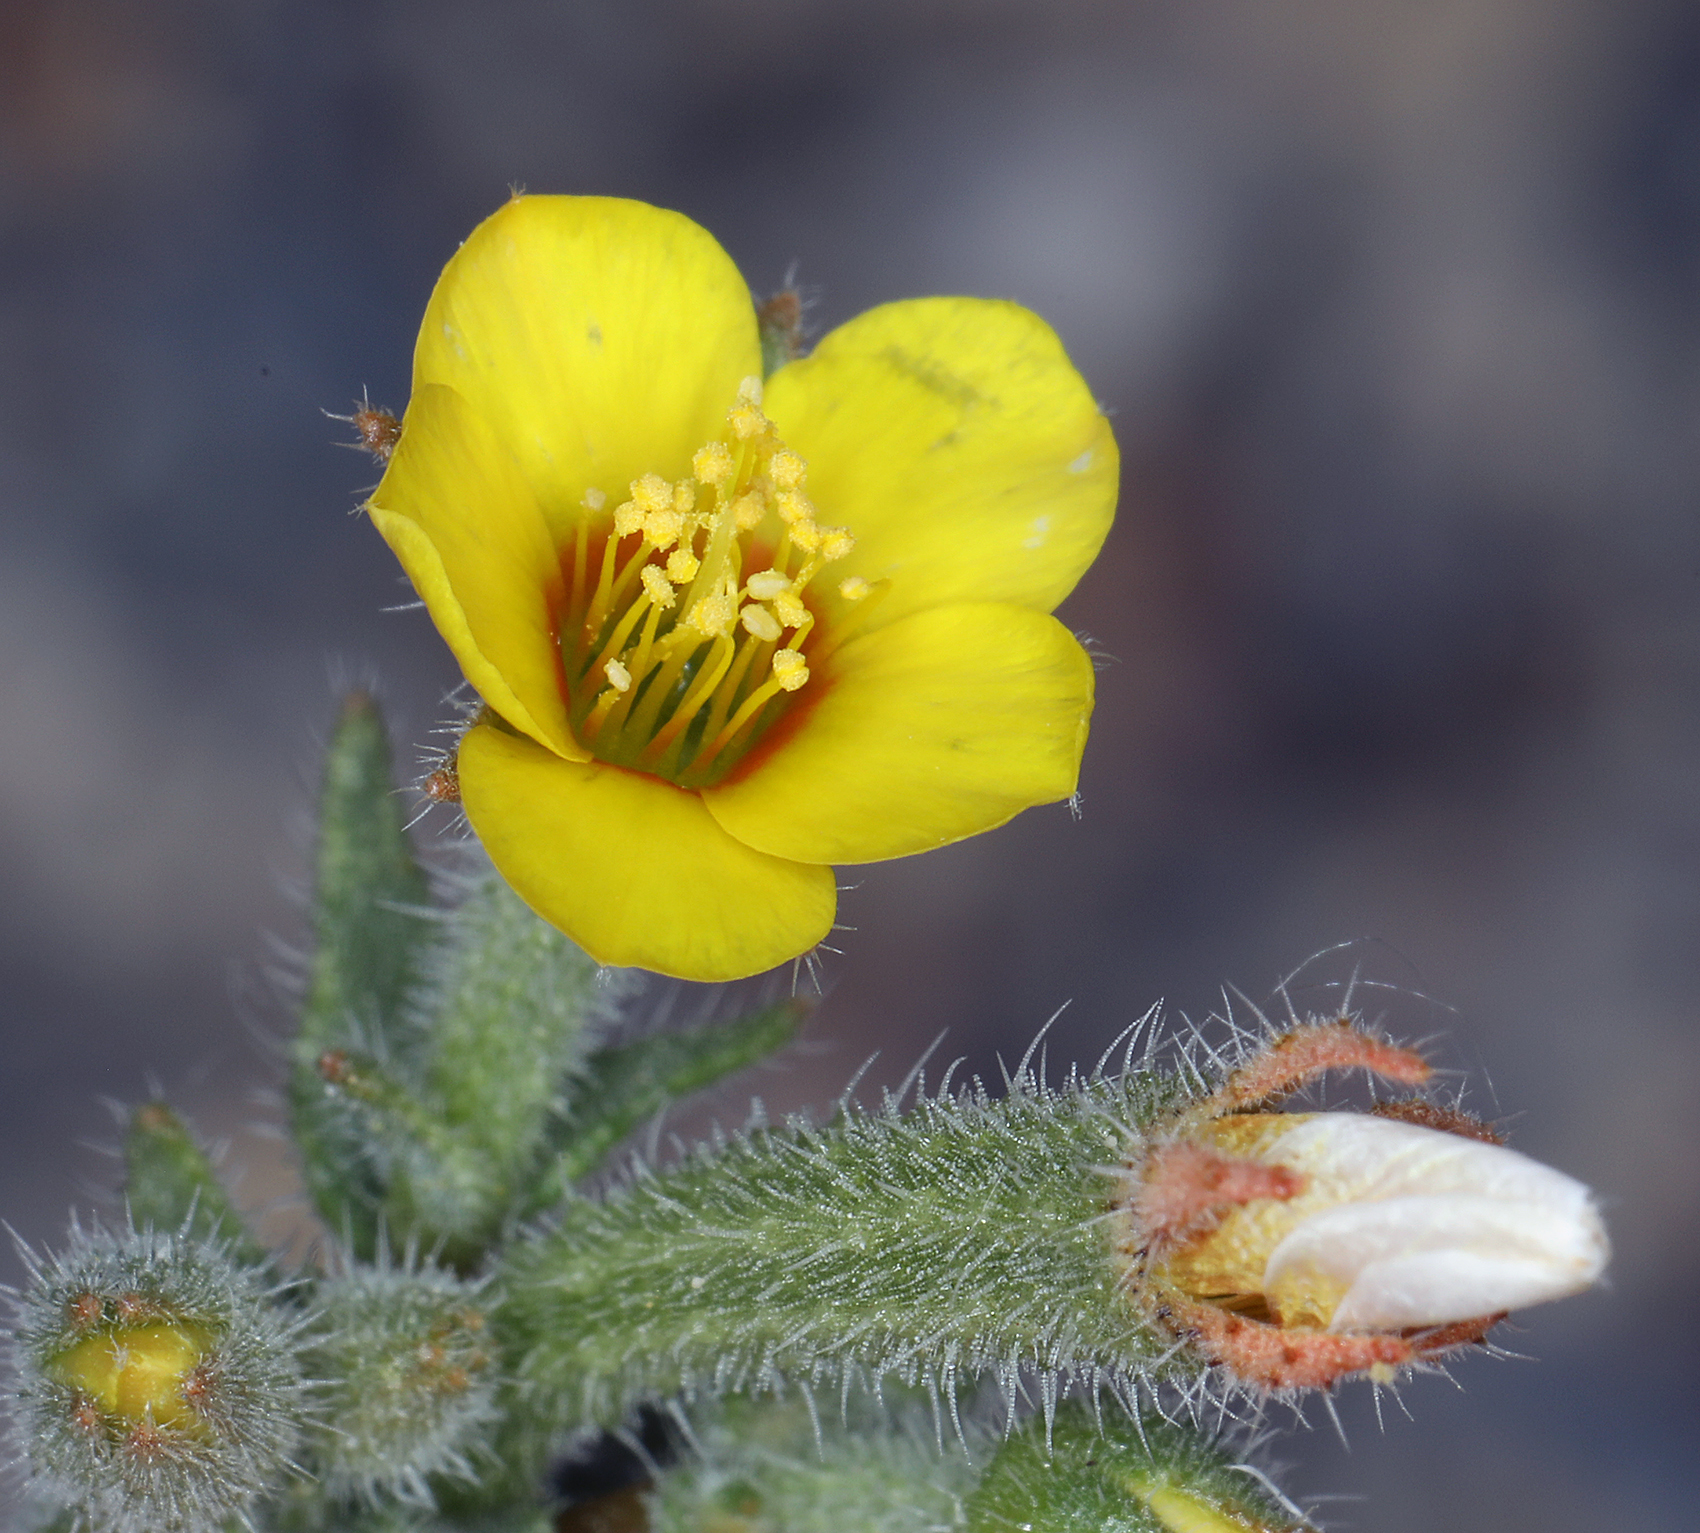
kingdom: Plantae
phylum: Tracheophyta
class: Magnoliopsida
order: Cornales
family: Loasaceae
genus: Mentzelia
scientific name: Mentzelia albicaulis
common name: White-stem blazingstar
